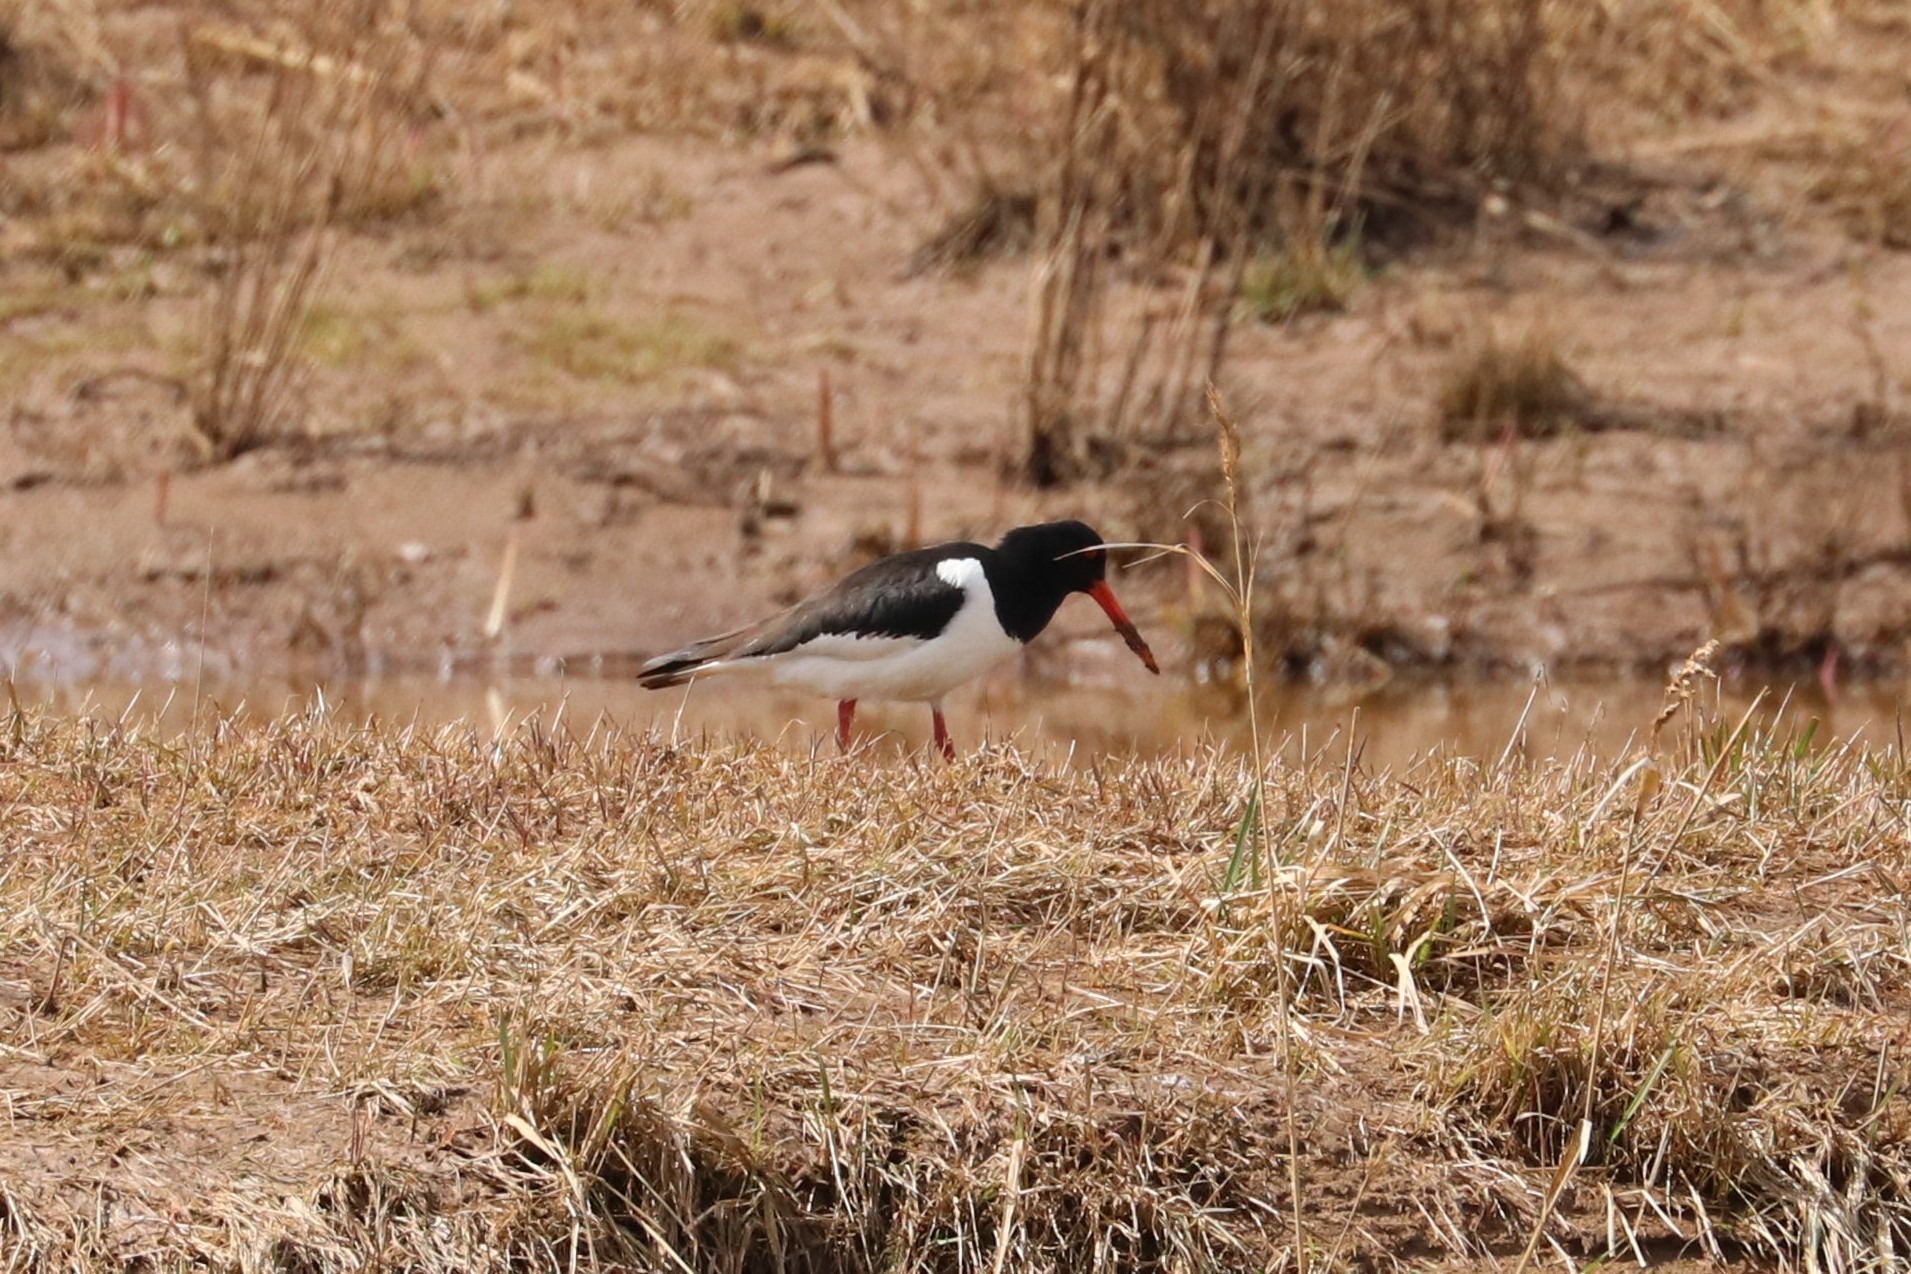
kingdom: Animalia
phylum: Chordata
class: Aves
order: Charadriiformes
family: Haematopodidae
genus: Haematopus
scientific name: Haematopus ostralegus
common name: Eurasian oystercatcher
